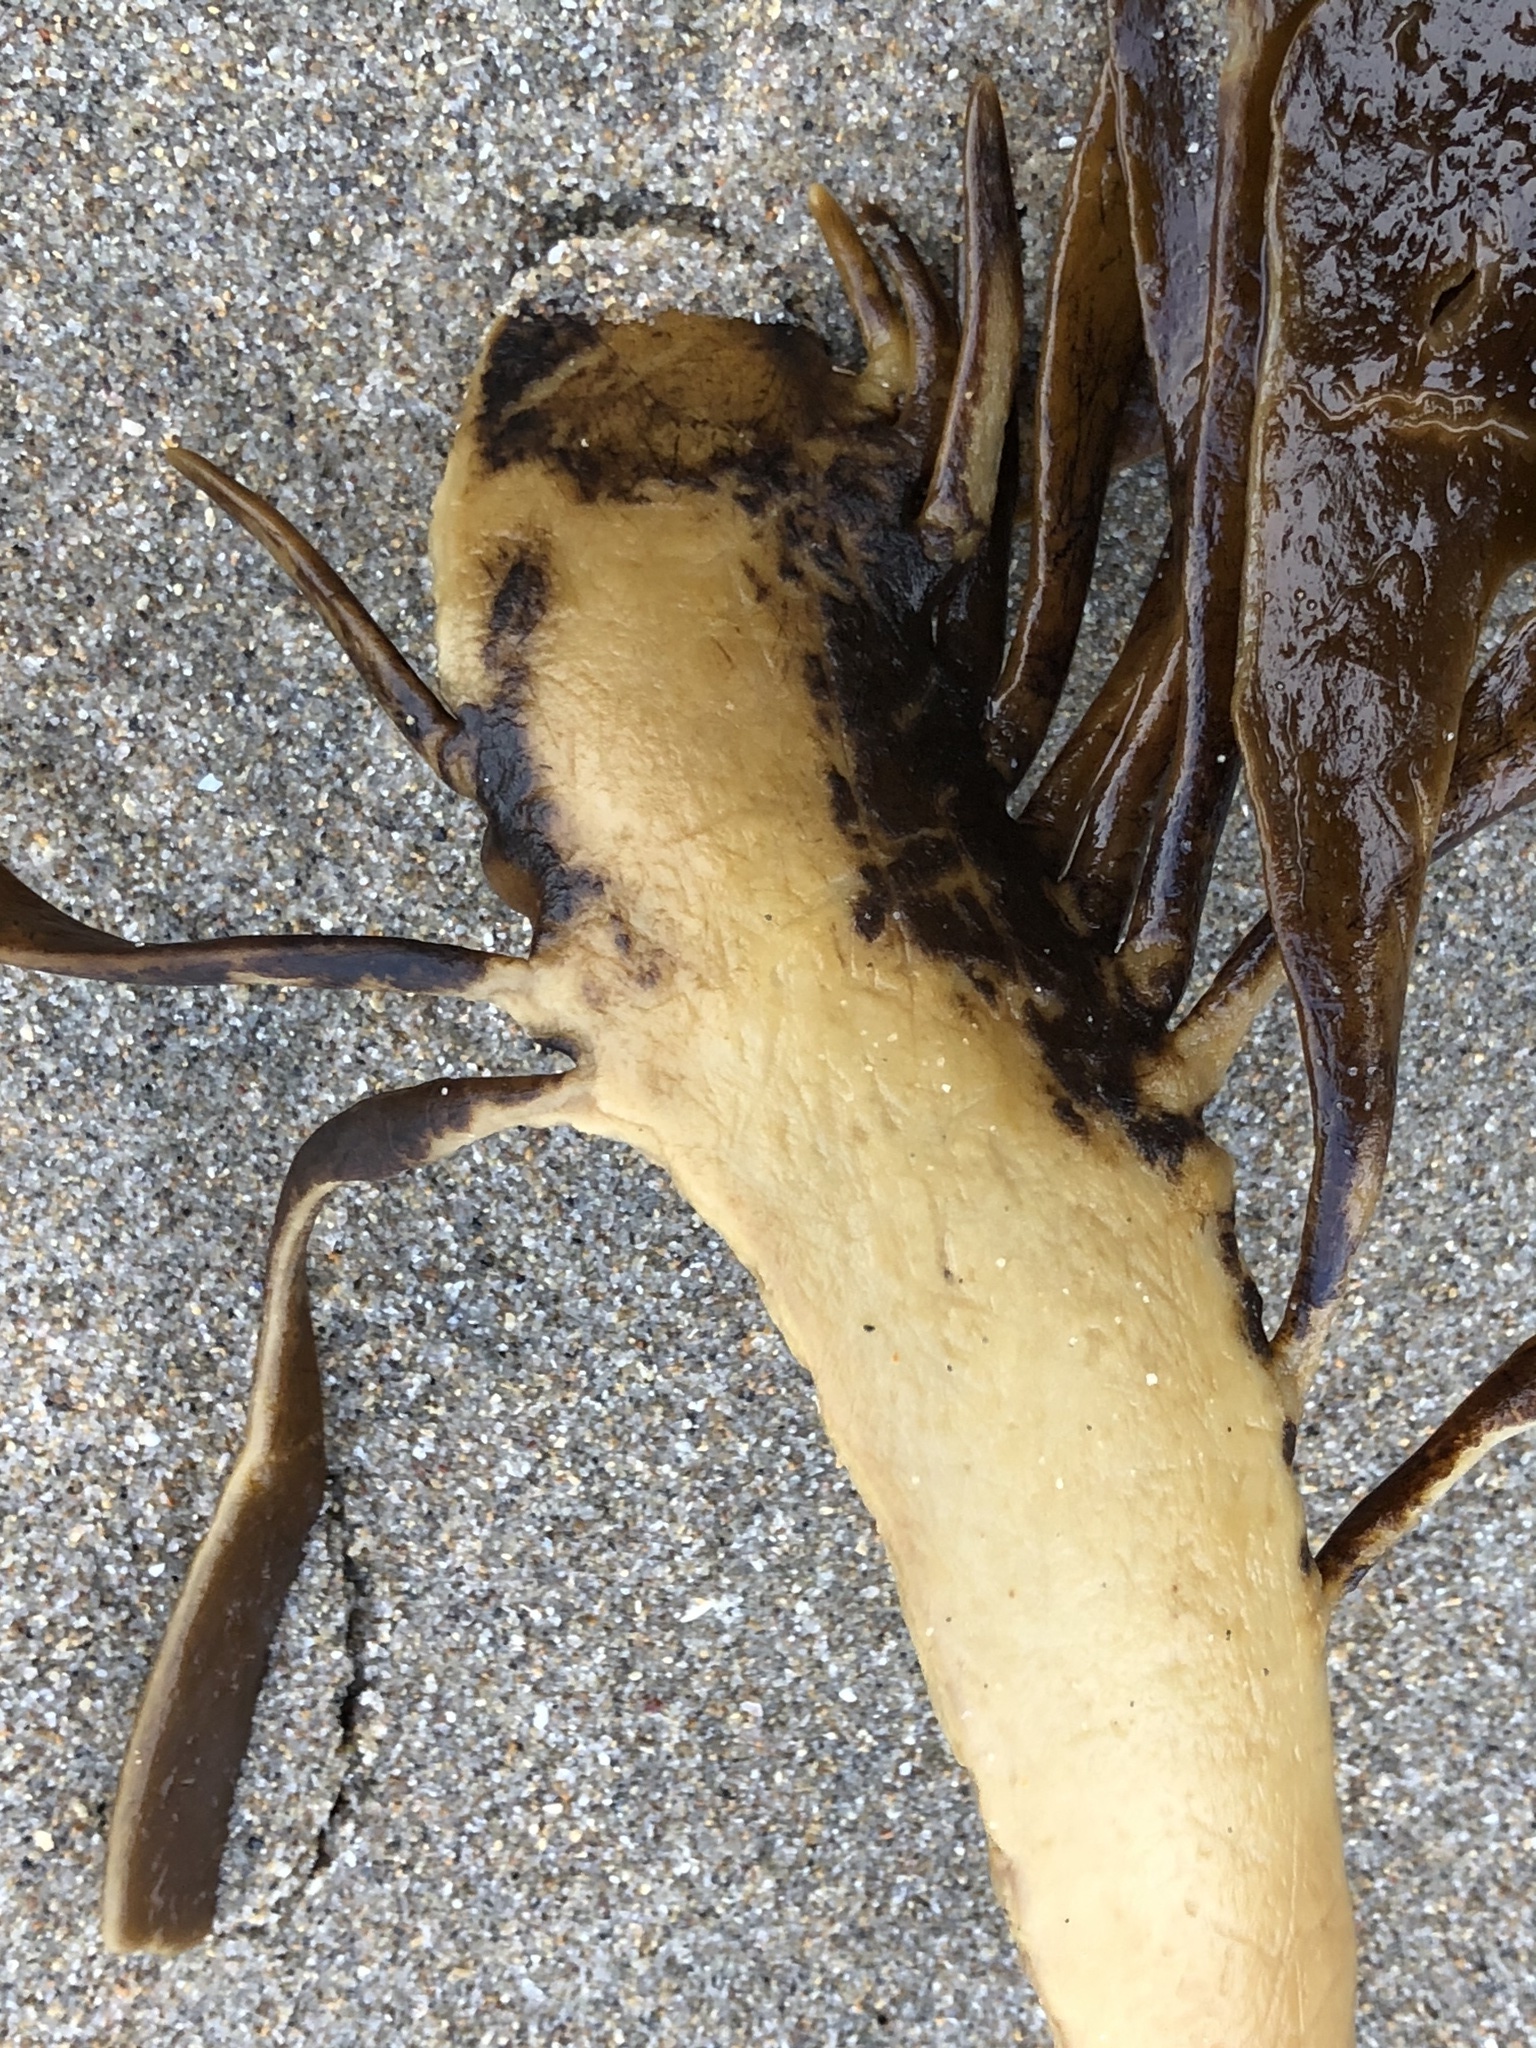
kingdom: Chromista
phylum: Ochrophyta
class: Phaeophyceae
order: Laminariales
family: Alariaceae
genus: Pterygophora
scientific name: Pterygophora californica
